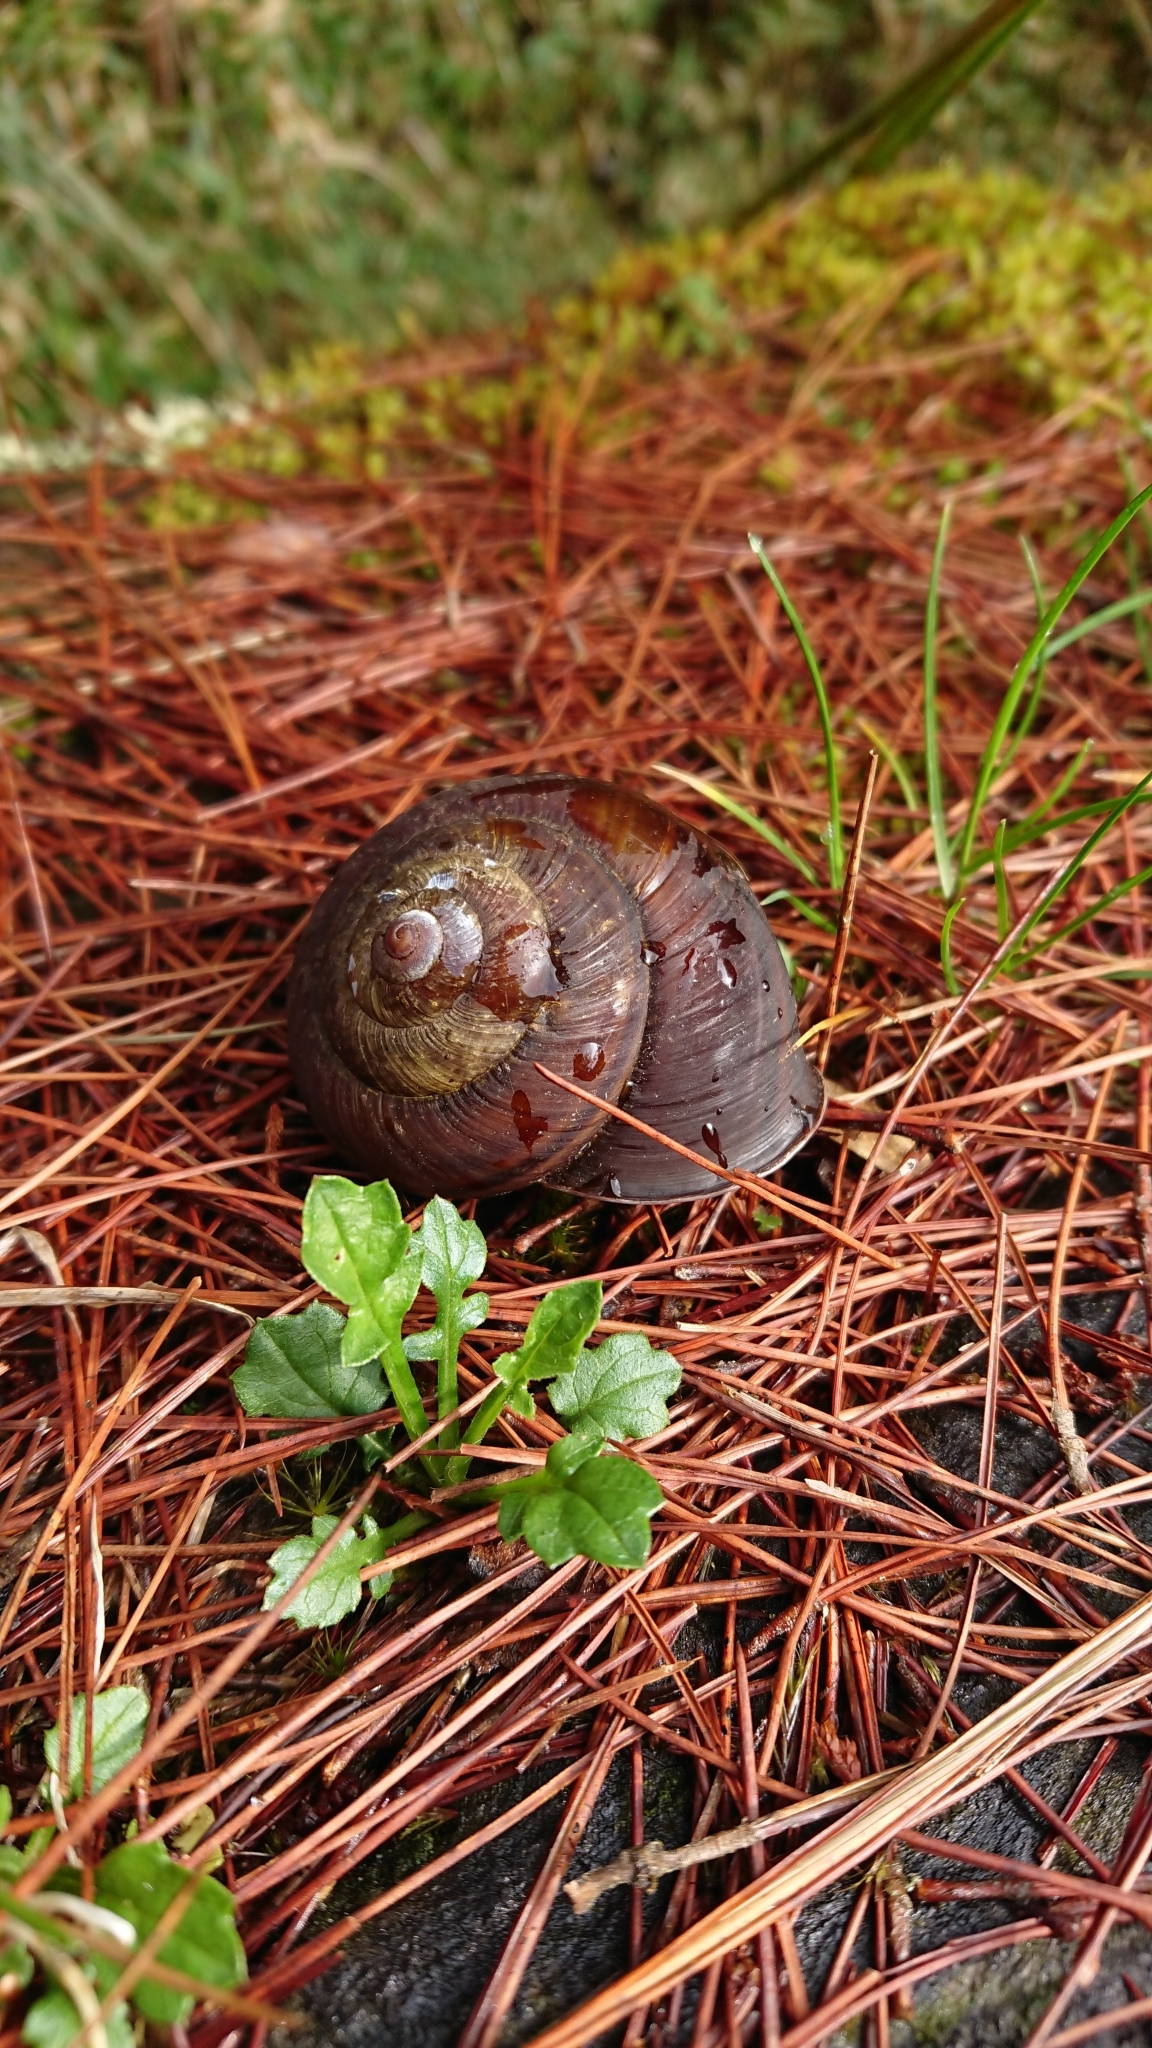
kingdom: Animalia
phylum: Mollusca
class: Gastropoda
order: Stylommatophora
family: Camaenidae
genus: Satsuma
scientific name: Satsuma arisana
